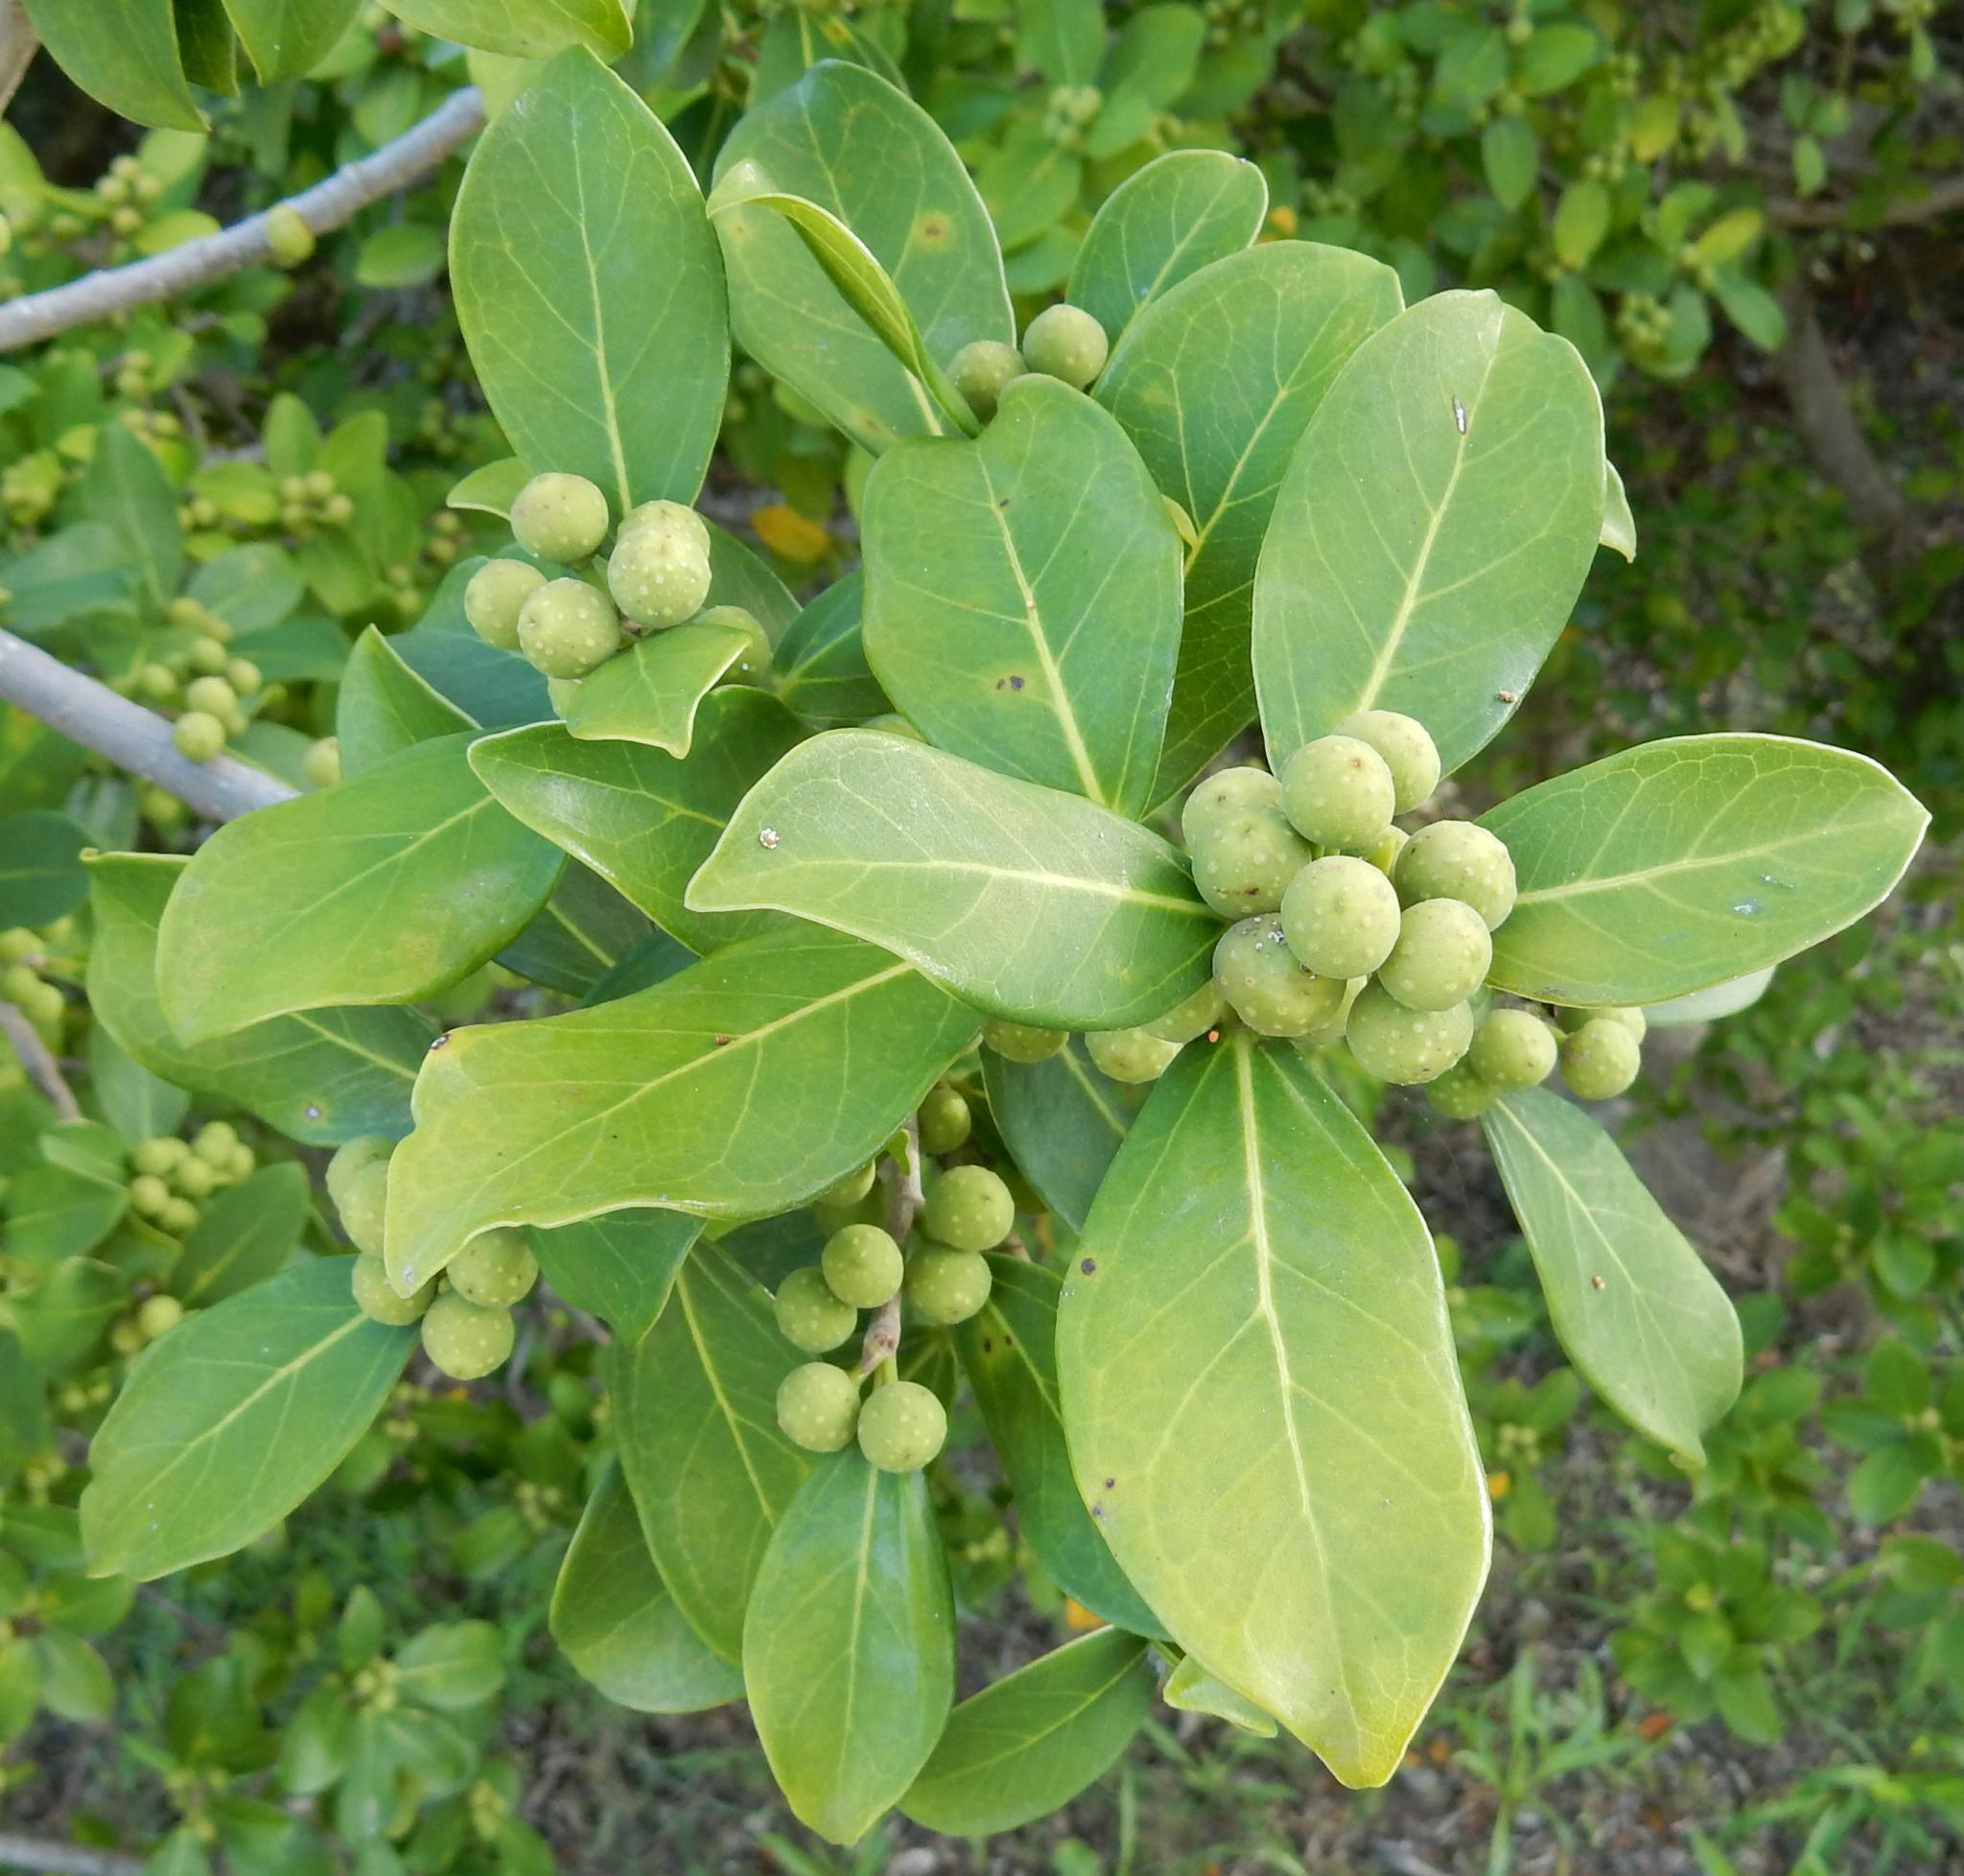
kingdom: Plantae
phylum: Tracheophyta
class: Magnoliopsida
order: Rosales
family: Moraceae
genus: Ficus
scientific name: Ficus burtt-davyi
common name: Scrambling fig
